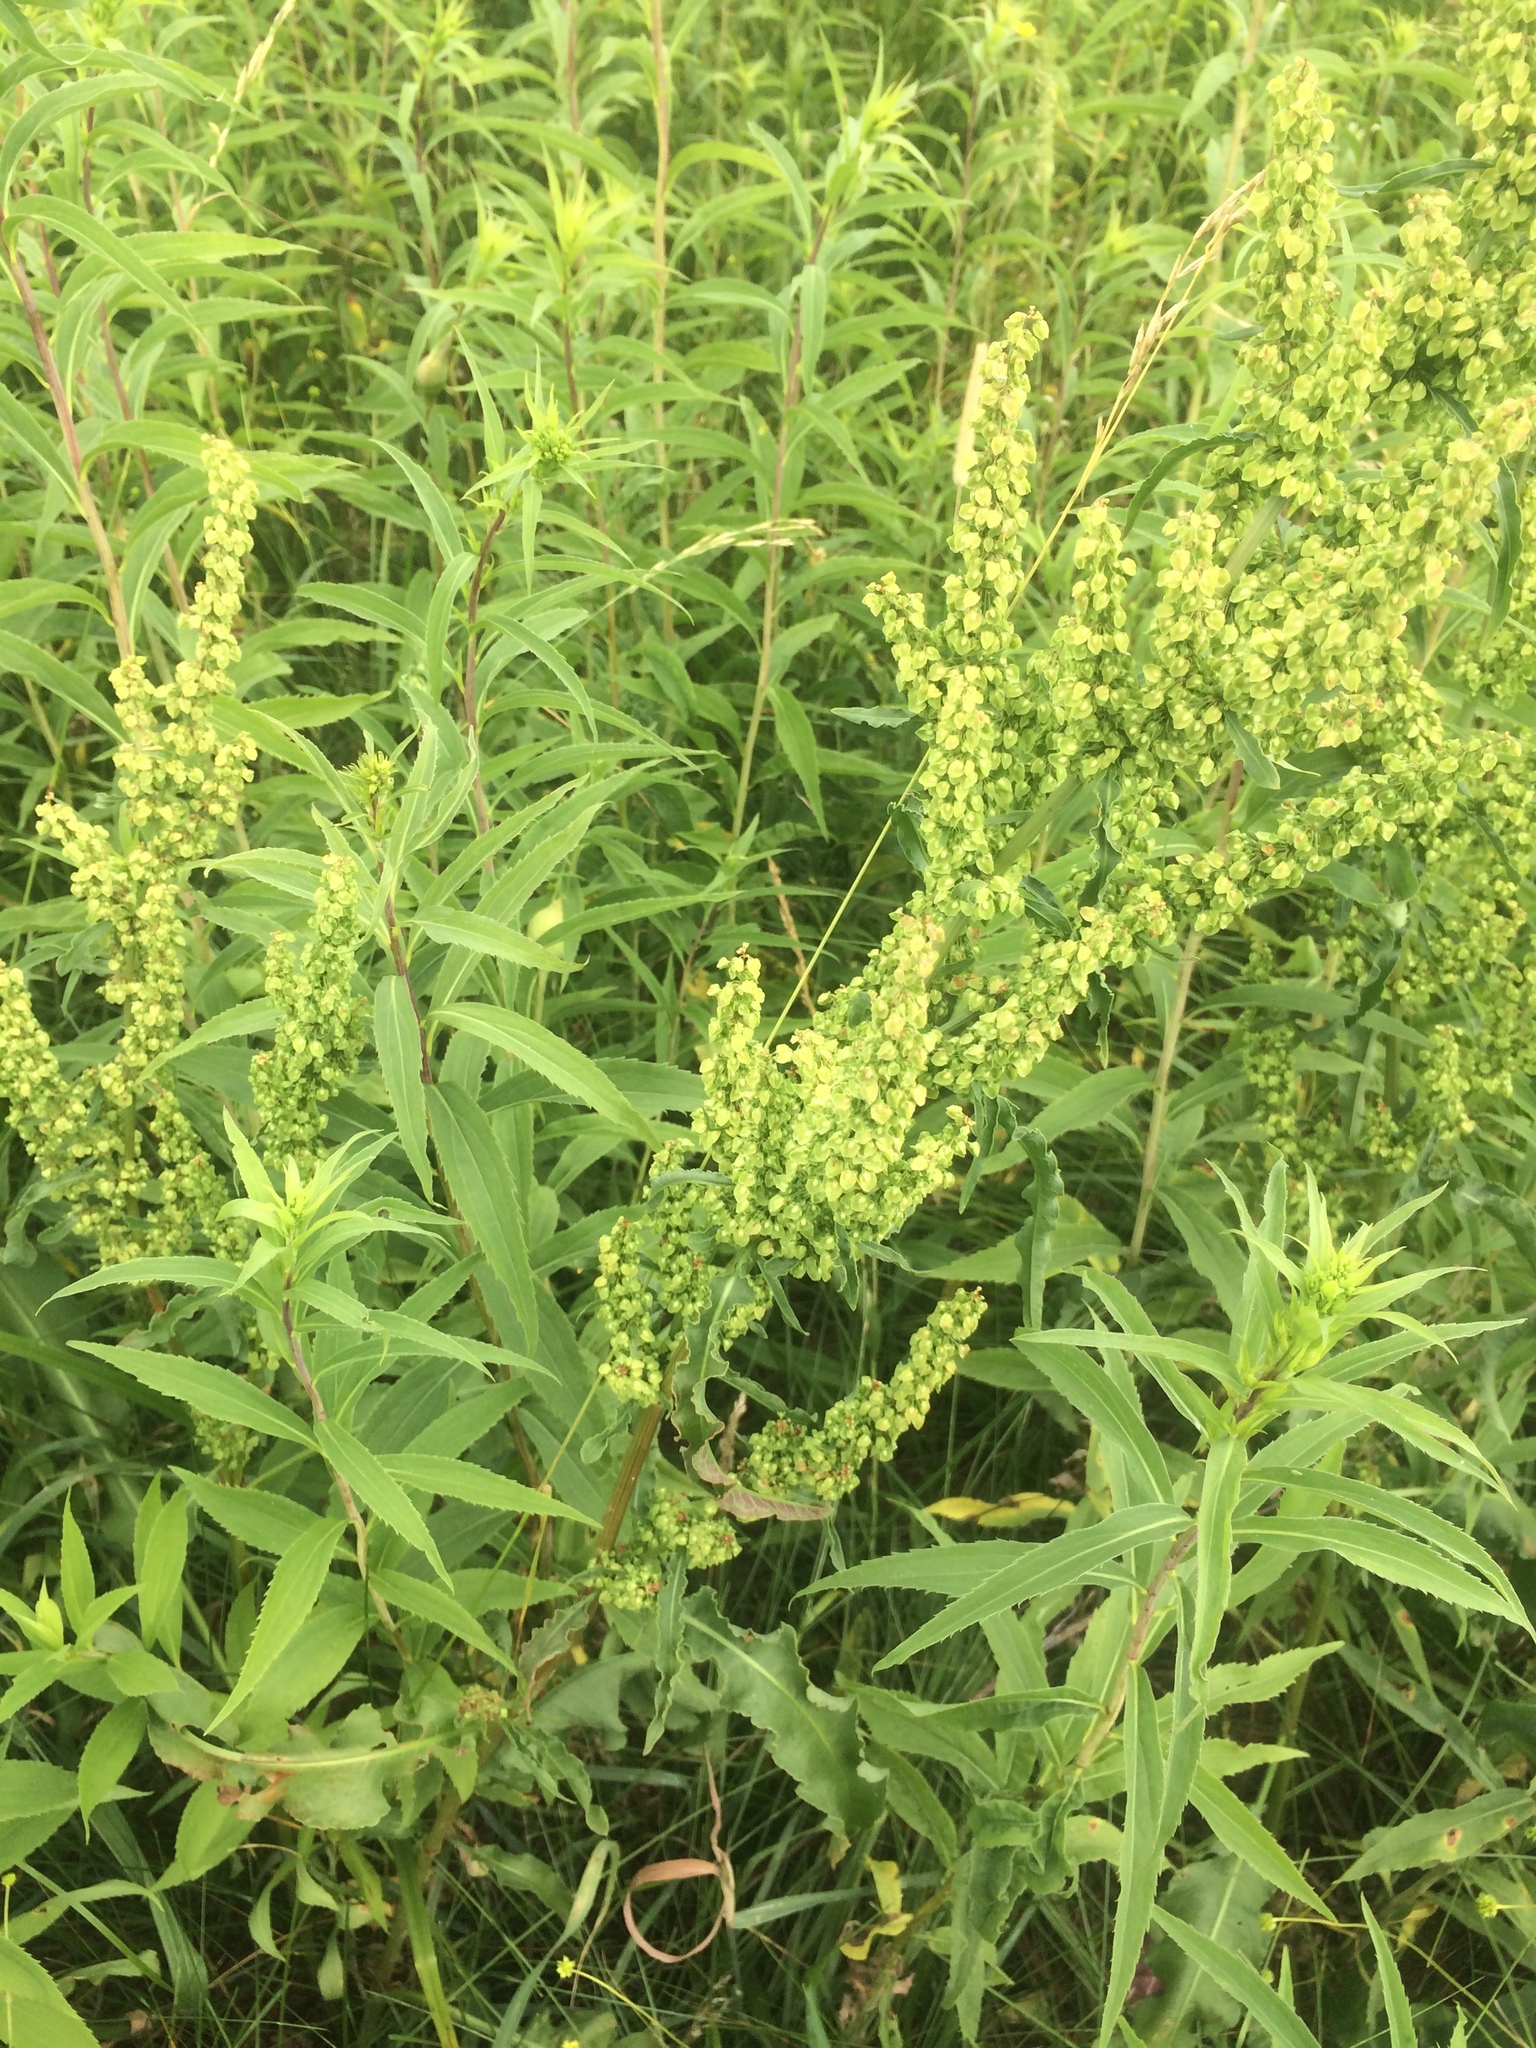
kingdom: Plantae
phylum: Tracheophyta
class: Magnoliopsida
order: Caryophyllales
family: Polygonaceae
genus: Rumex
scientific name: Rumex crispus
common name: Curled dock
